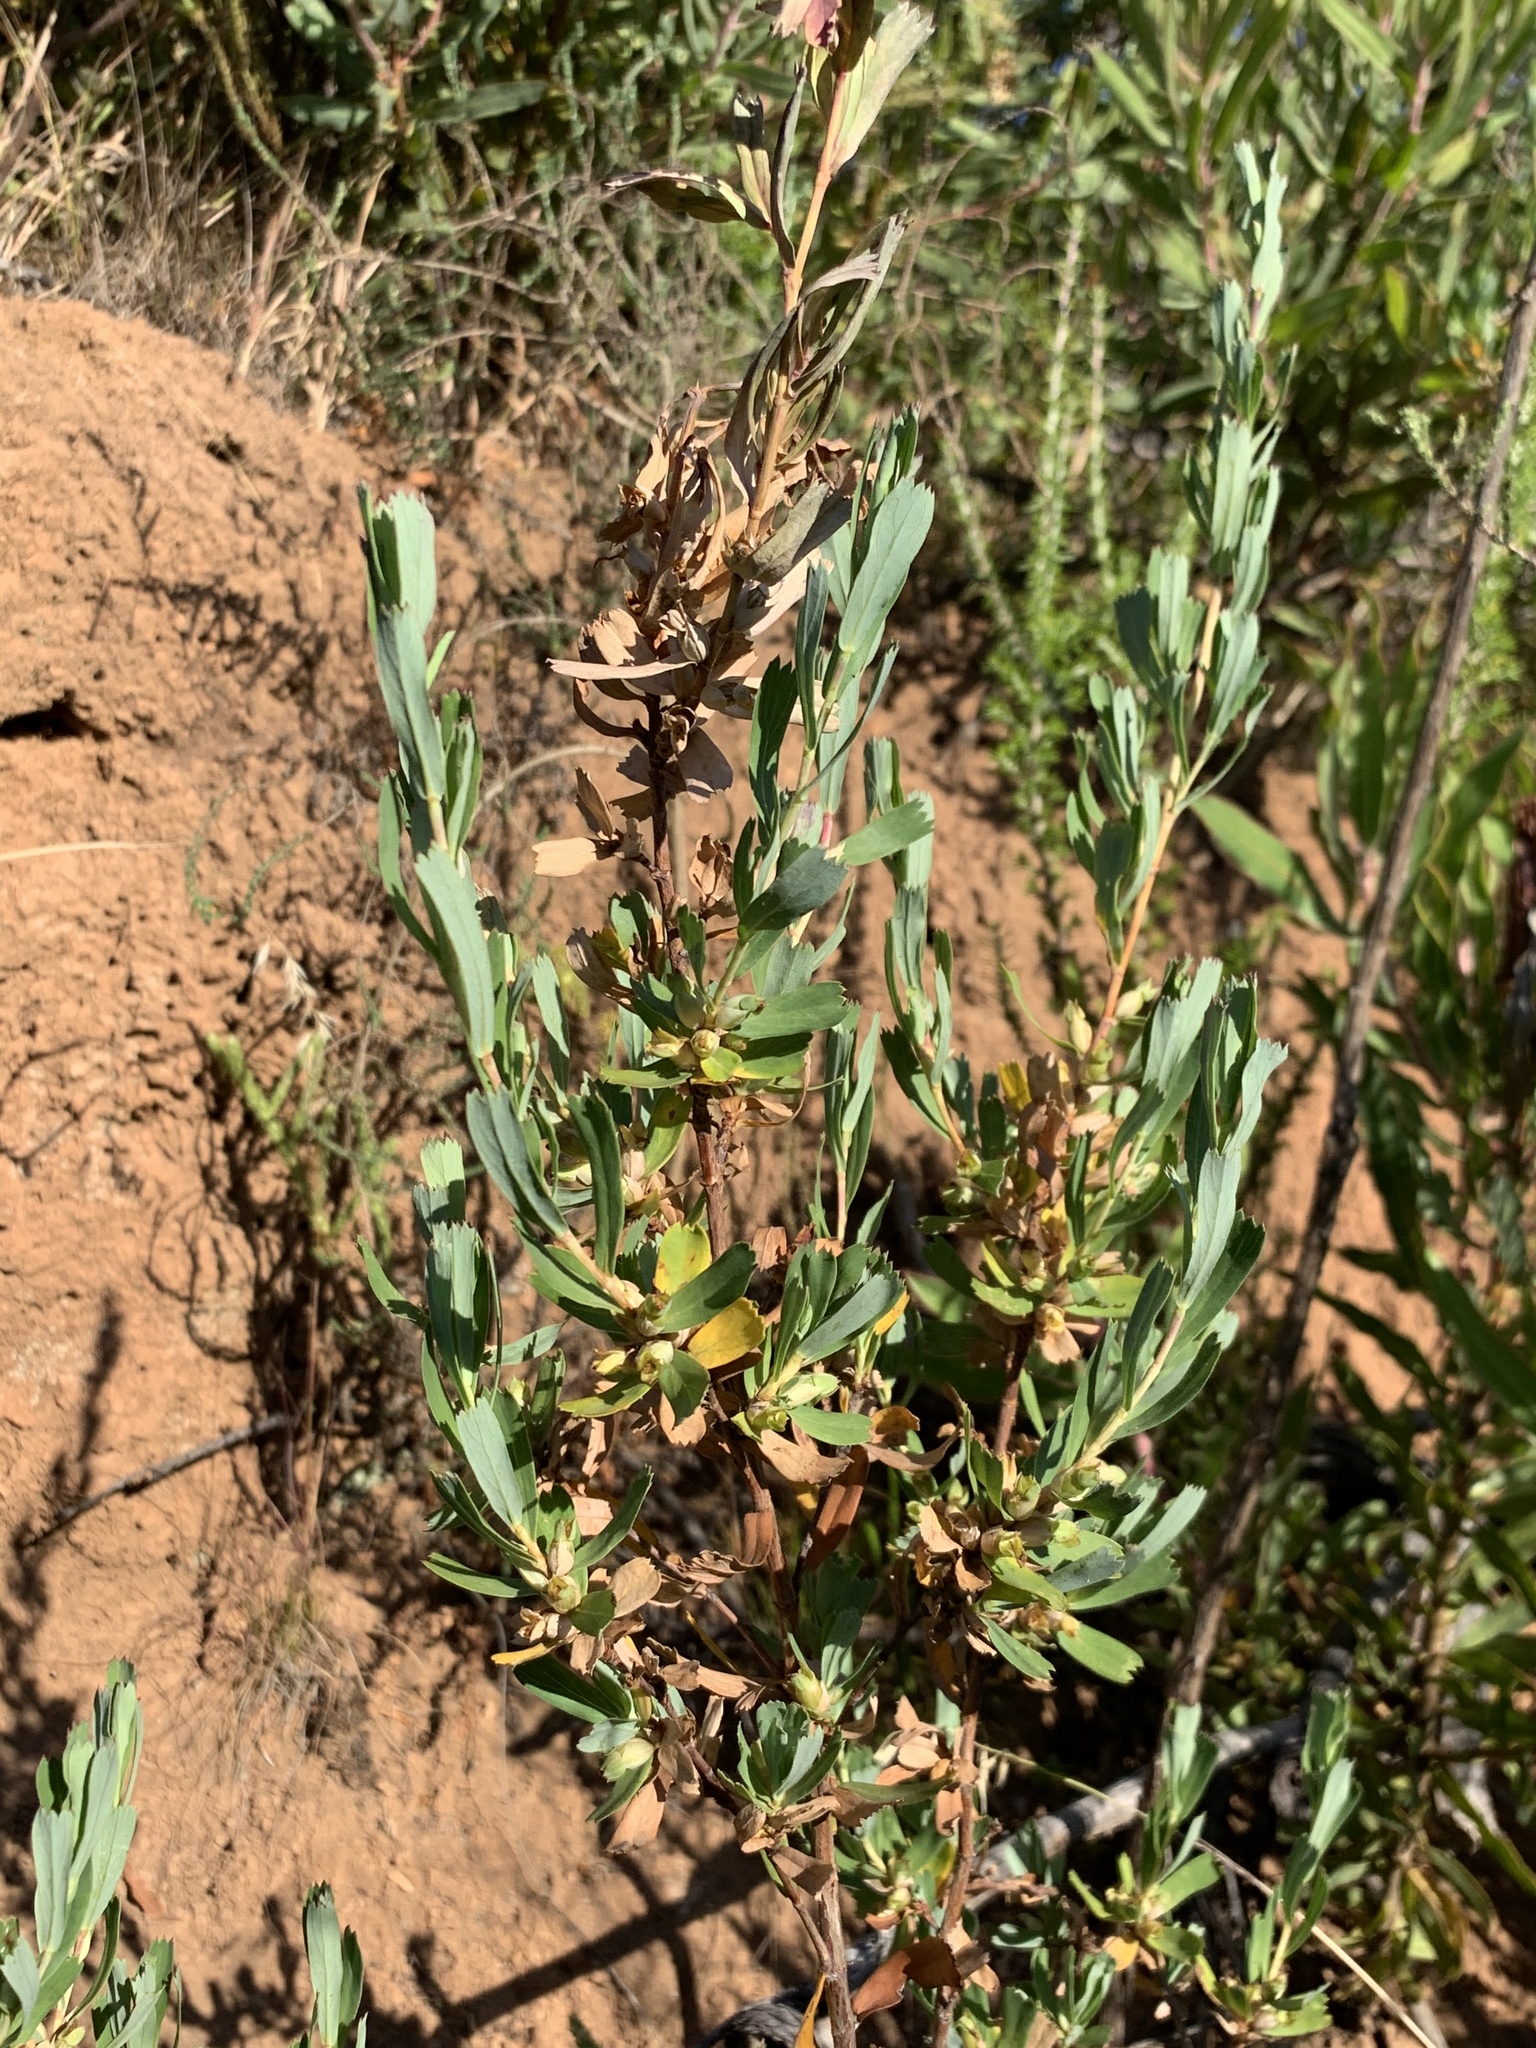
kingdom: Plantae
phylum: Tracheophyta
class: Magnoliopsida
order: Rosales
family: Rosaceae
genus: Cliffortia
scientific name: Cliffortia cuneata
